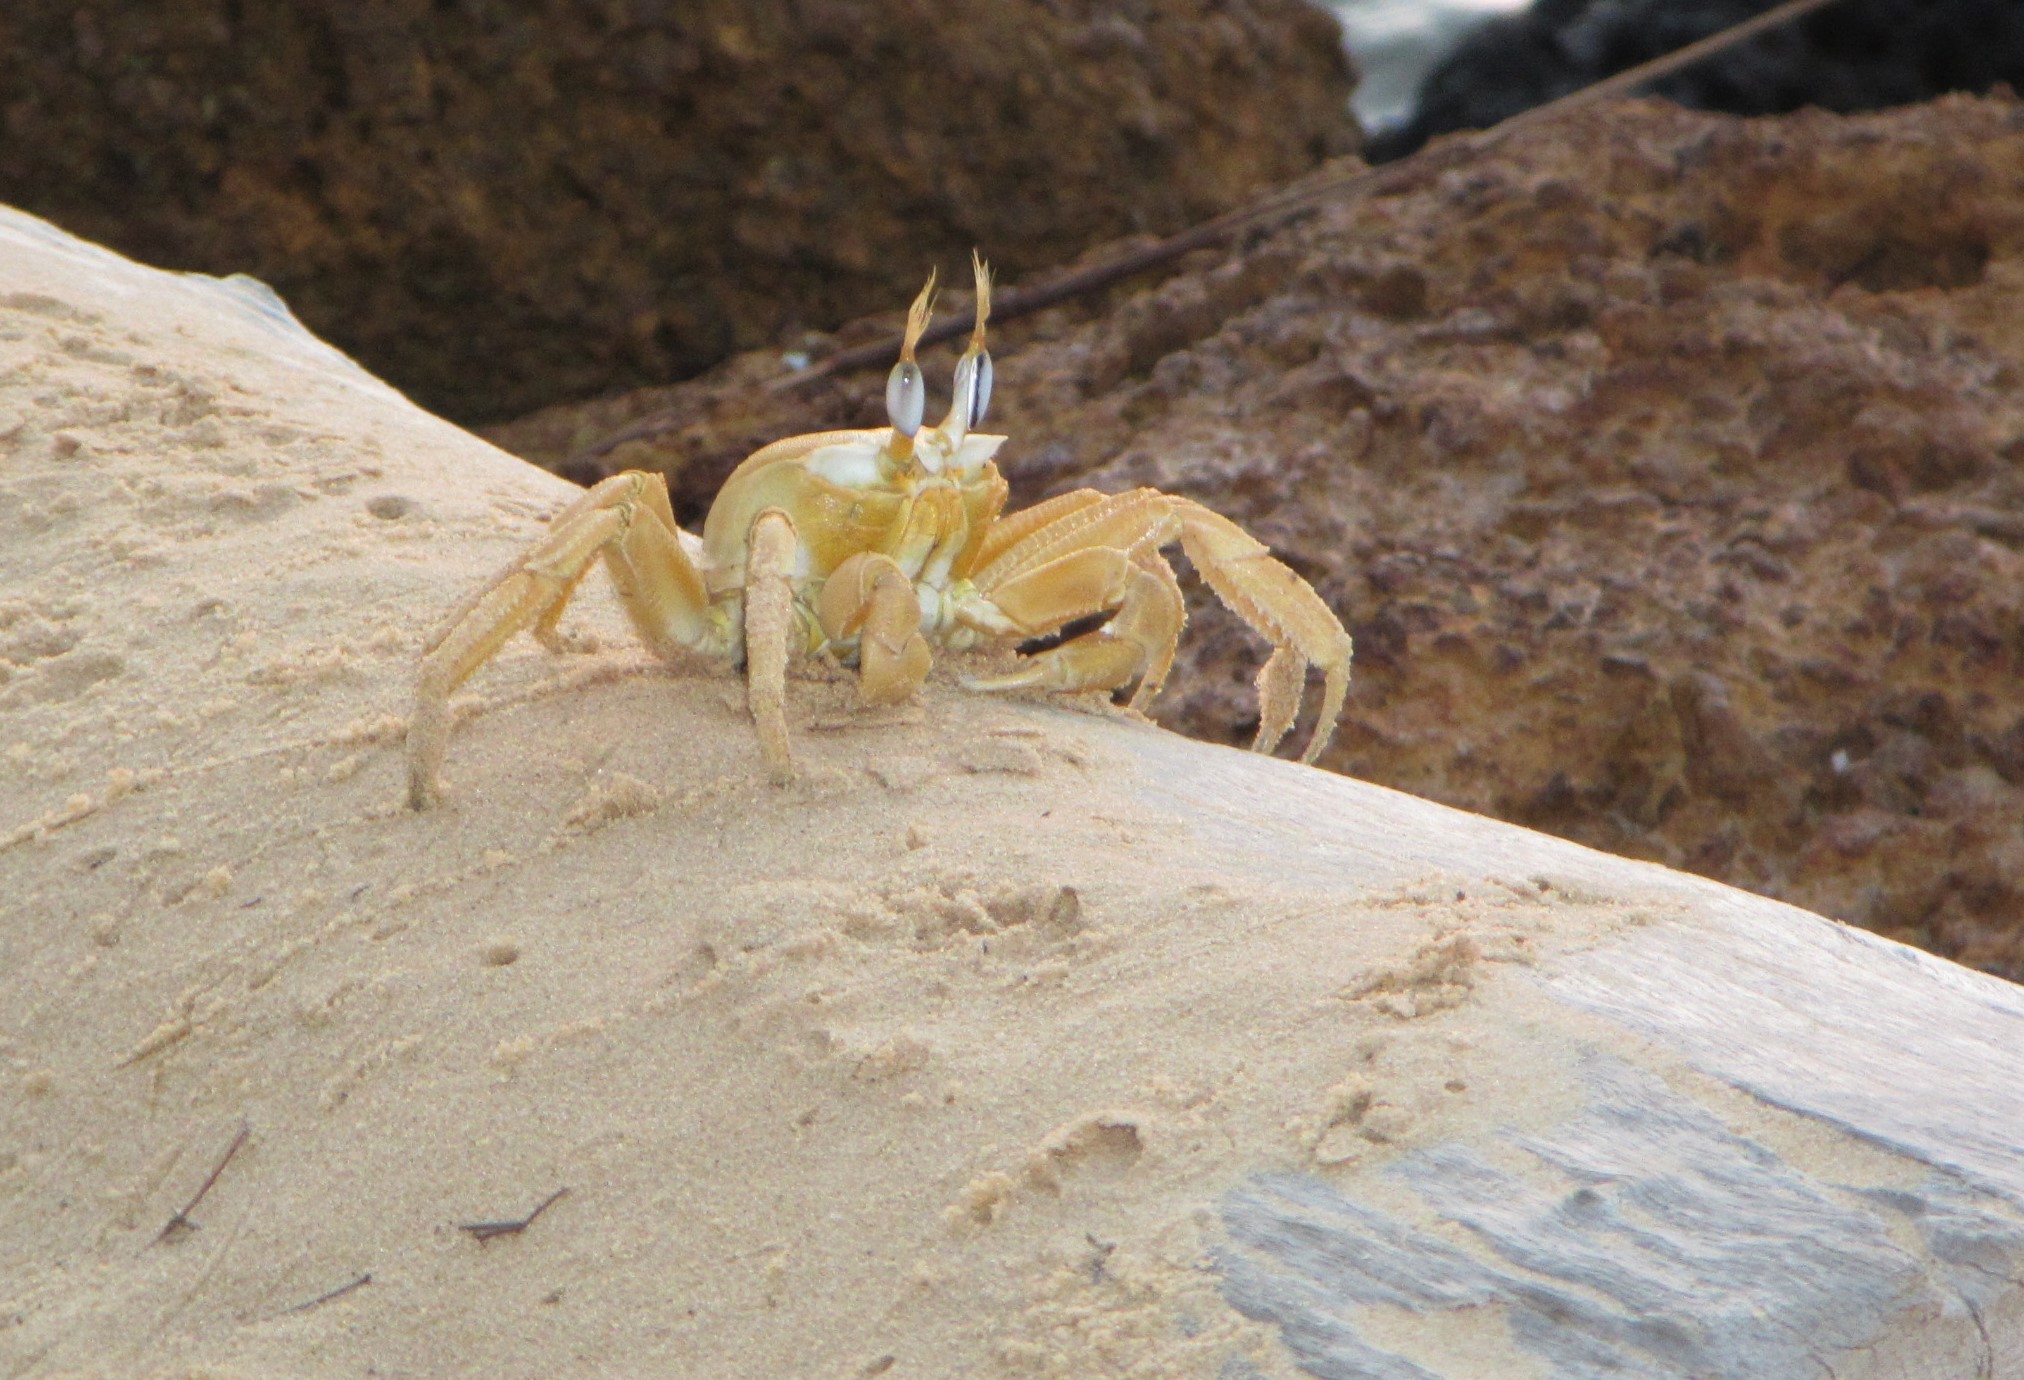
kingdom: Animalia
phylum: Arthropoda
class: Malacostraca
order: Decapoda
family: Ocypodidae
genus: Ocypode
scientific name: Ocypode cursor
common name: Tufted ghost crab
